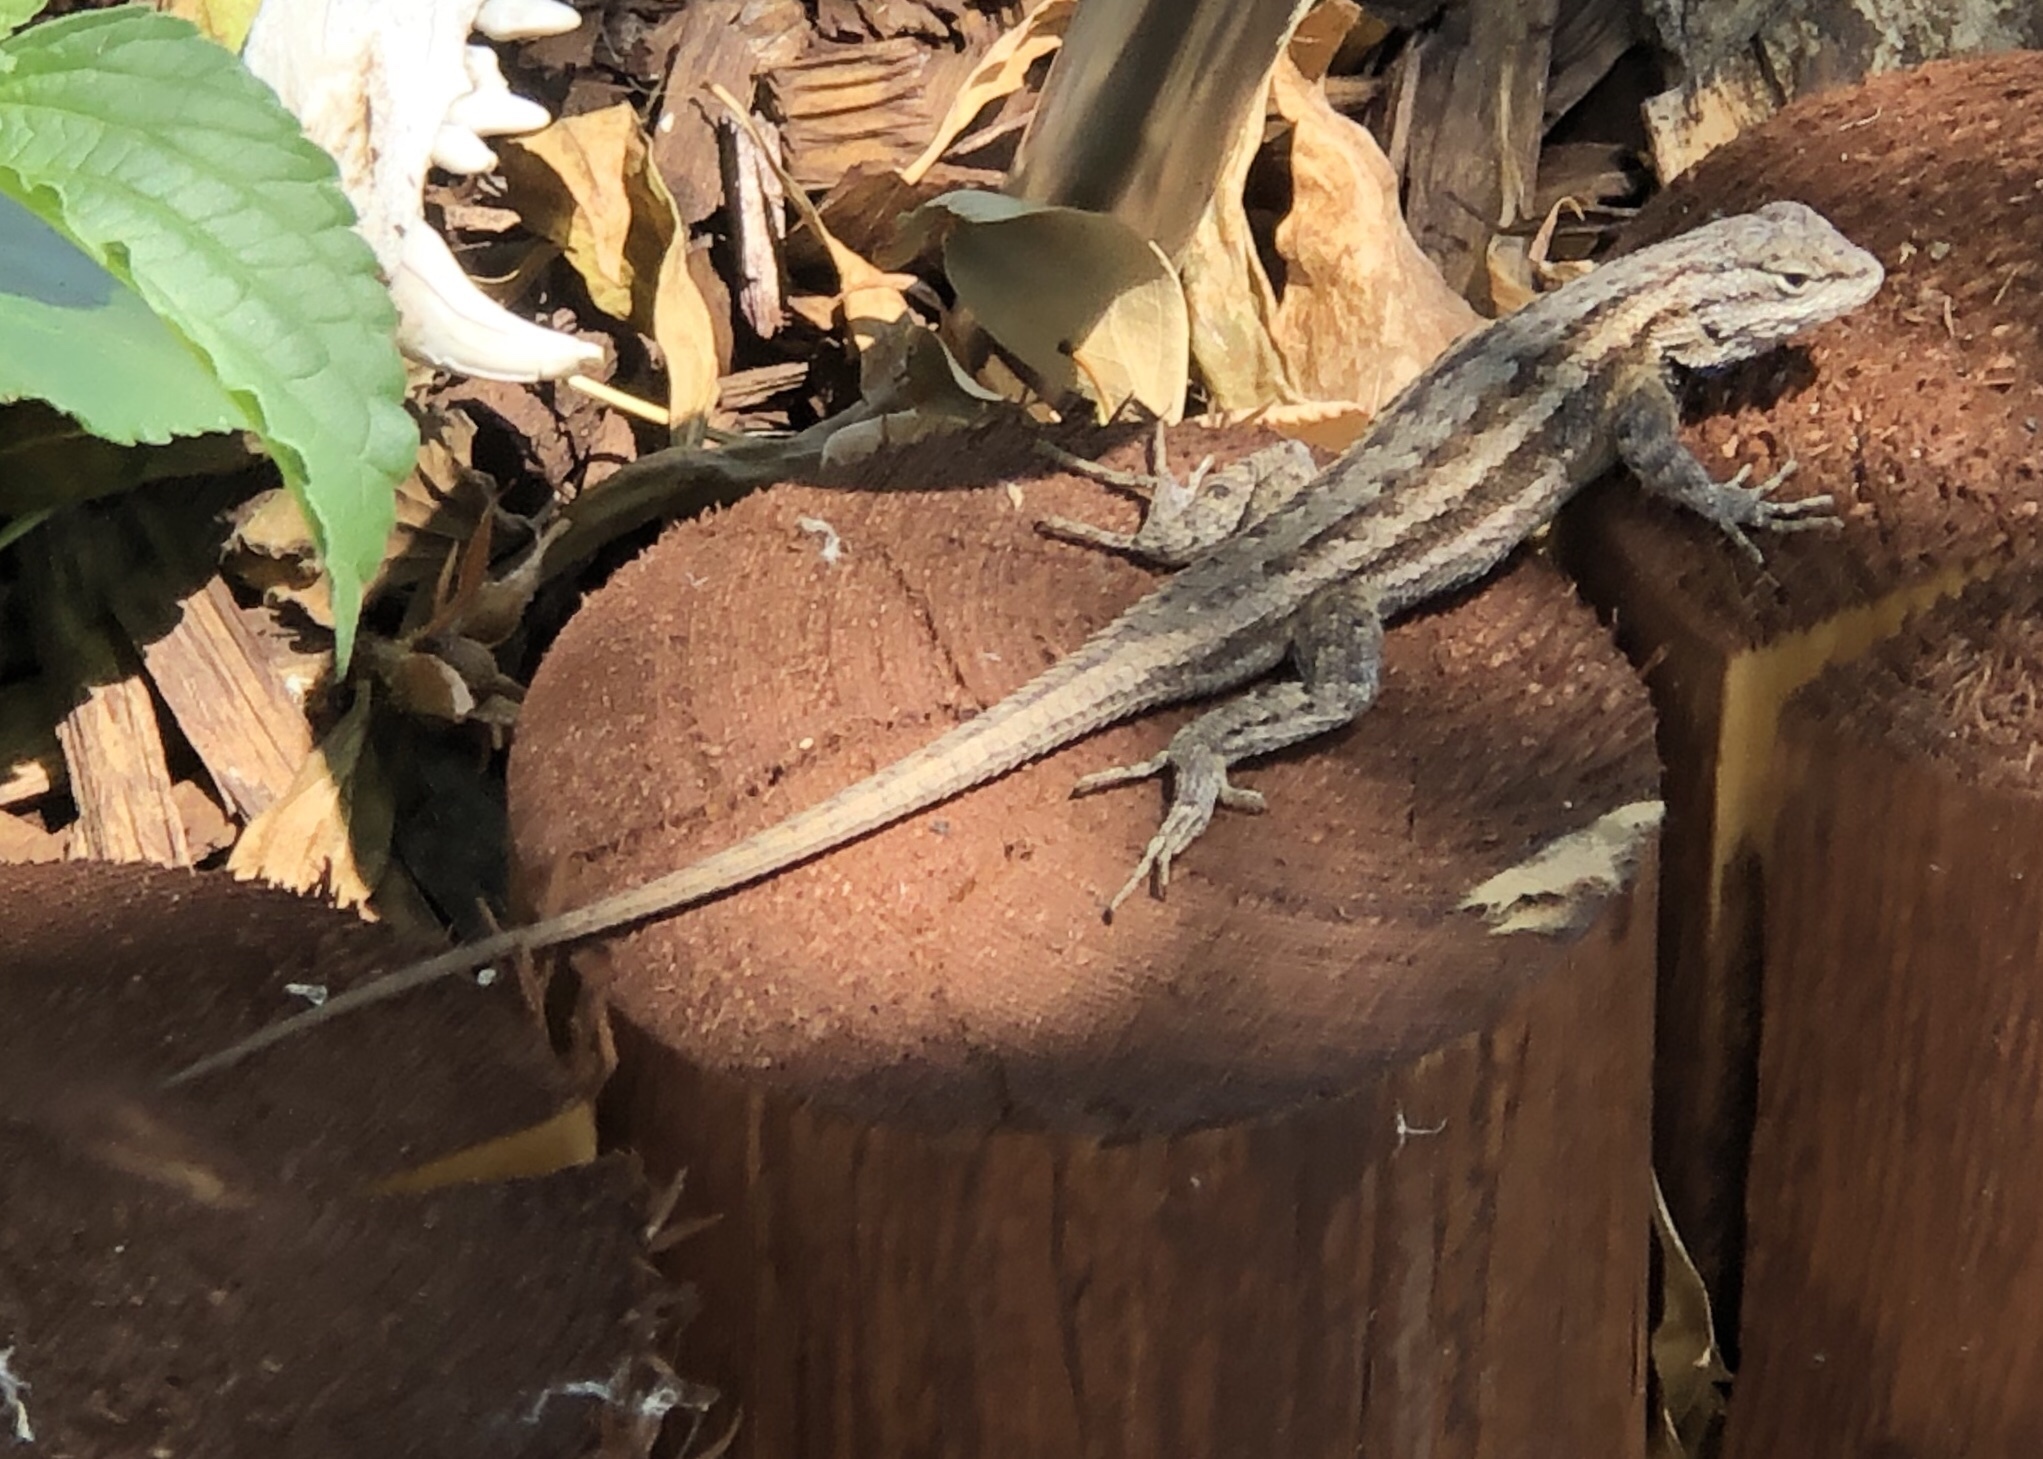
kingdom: Animalia
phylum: Chordata
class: Squamata
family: Phrynosomatidae
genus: Sceloporus
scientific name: Sceloporus cowlesi
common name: White sands prairie lizard
